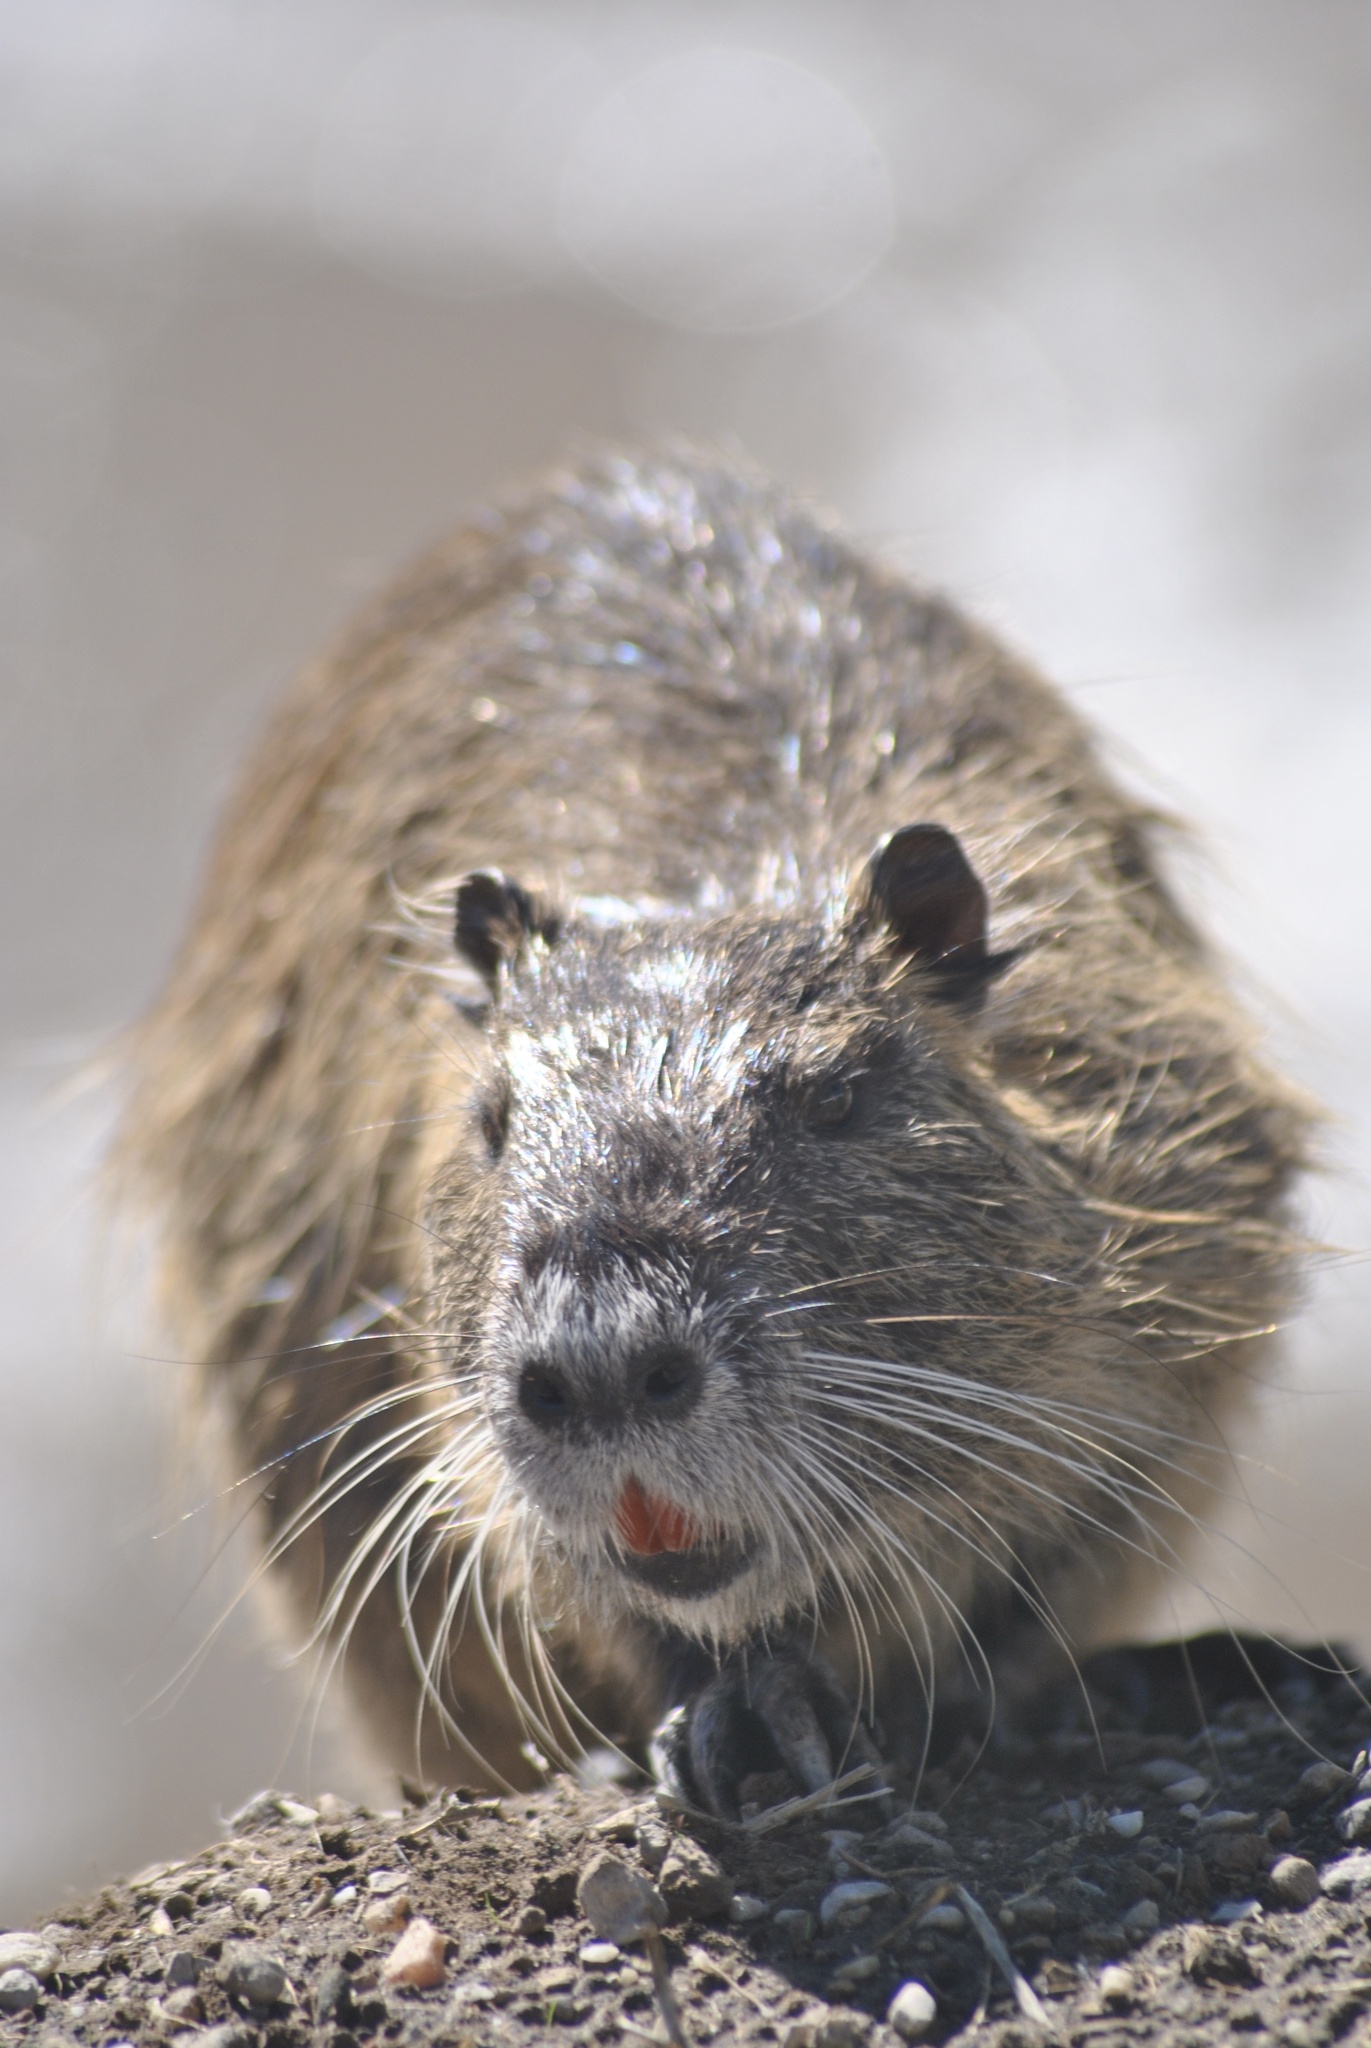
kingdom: Animalia
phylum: Chordata
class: Mammalia
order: Rodentia
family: Myocastoridae
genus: Myocastor
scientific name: Myocastor coypus
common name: Coypu
